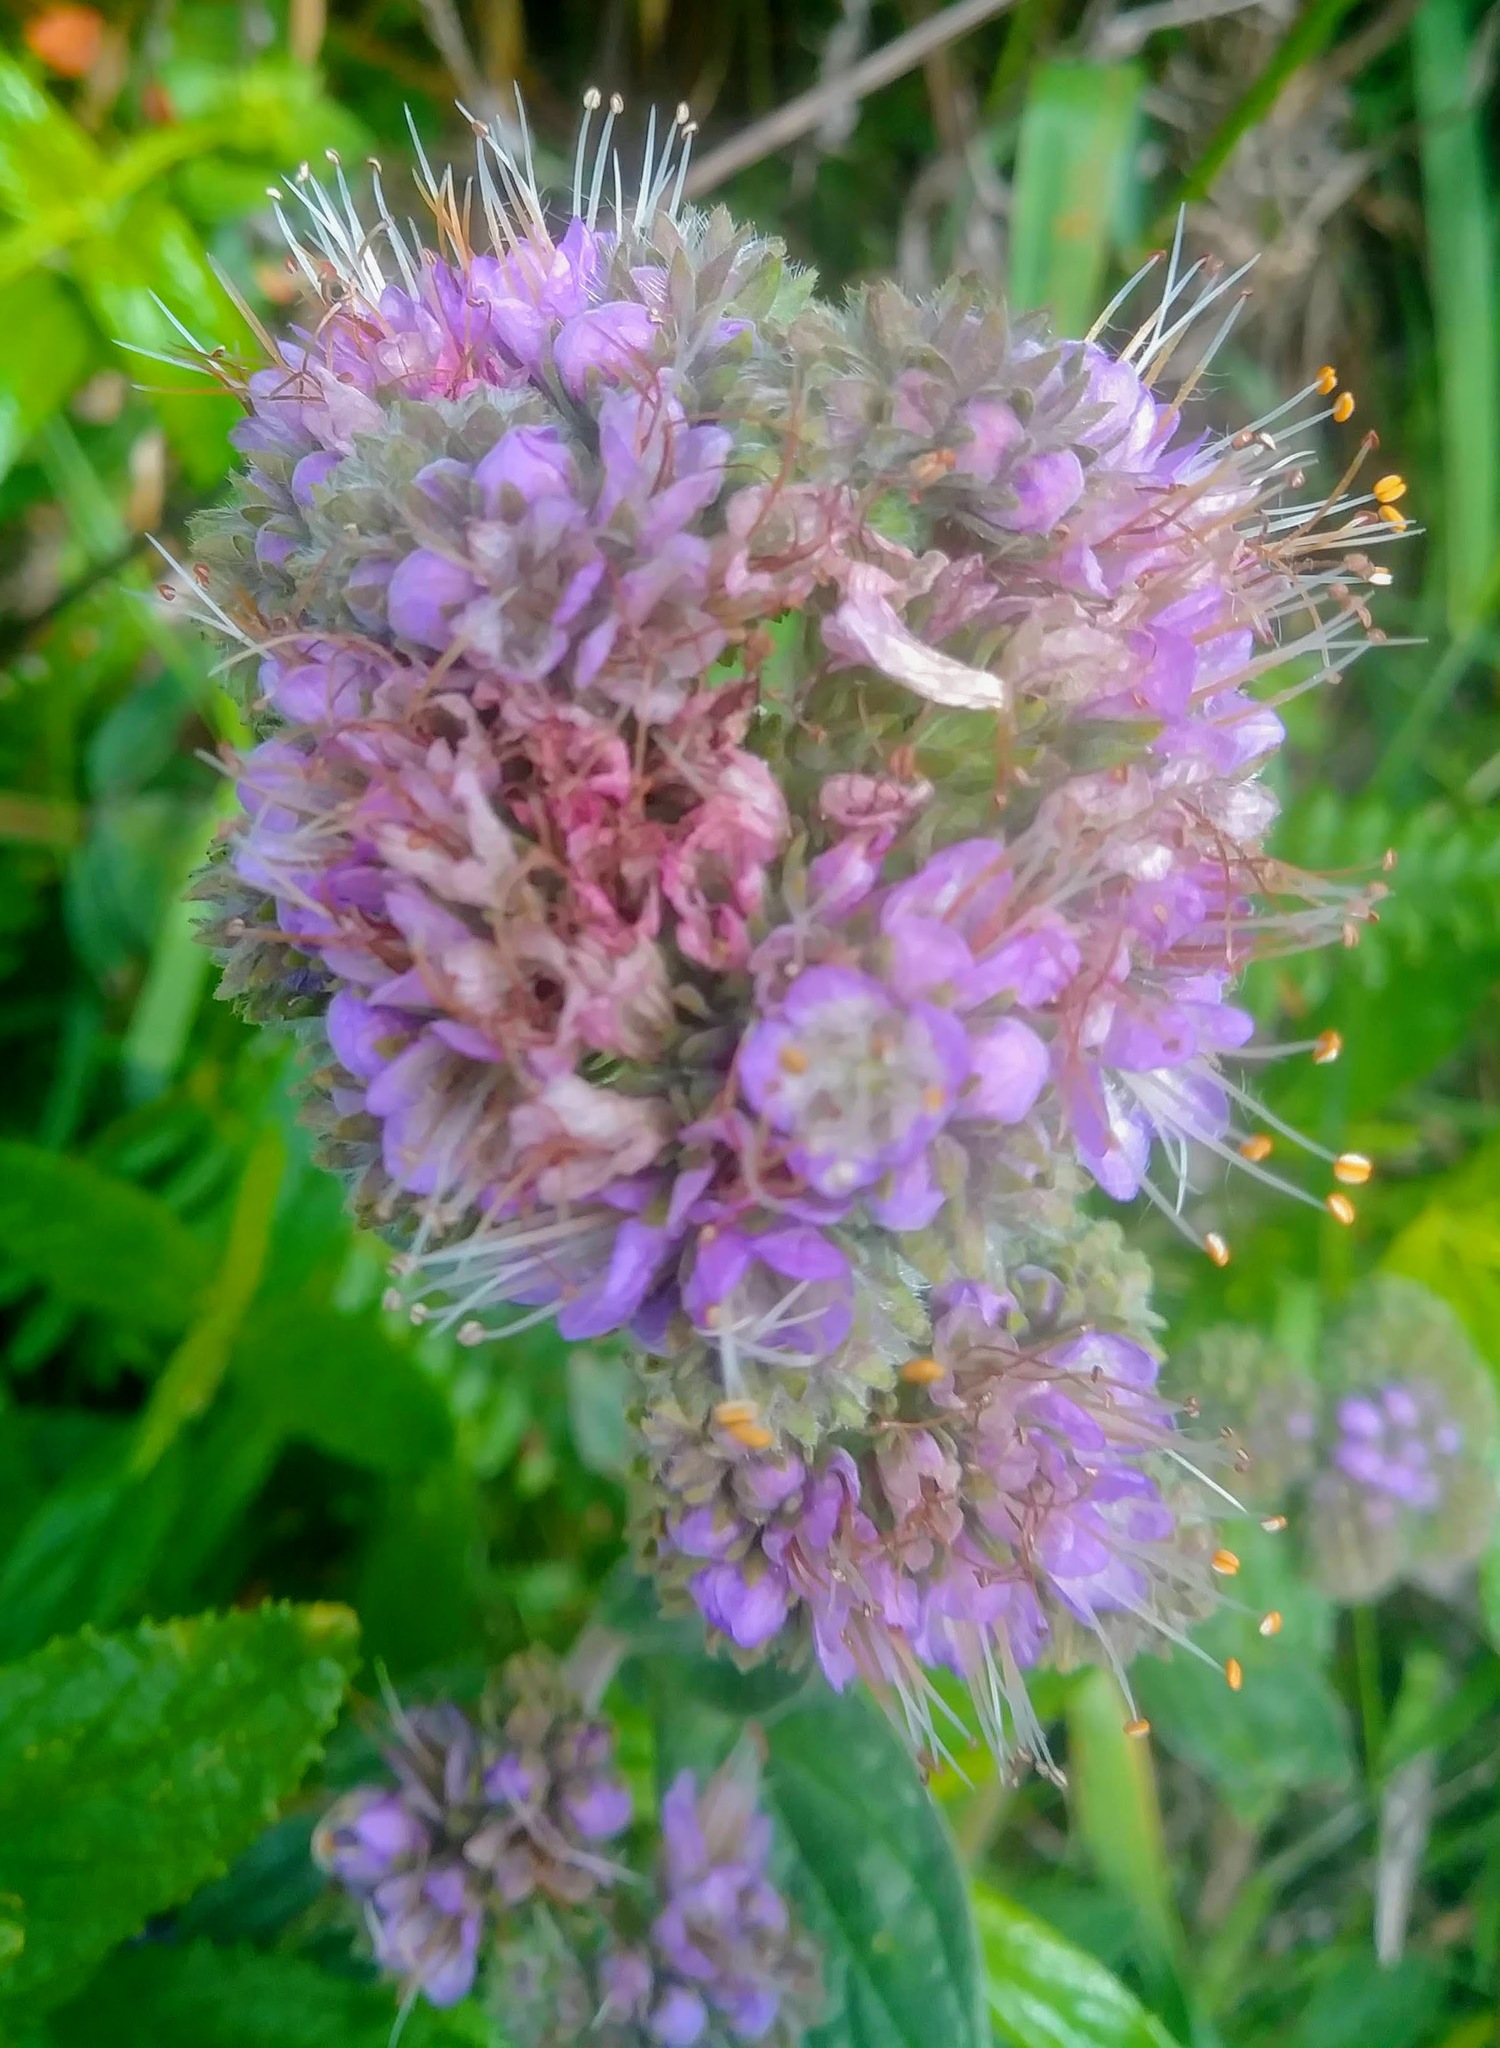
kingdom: Plantae
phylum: Tracheophyta
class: Magnoliopsida
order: Boraginales
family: Hydrophyllaceae
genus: Phacelia
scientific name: Phacelia californica
